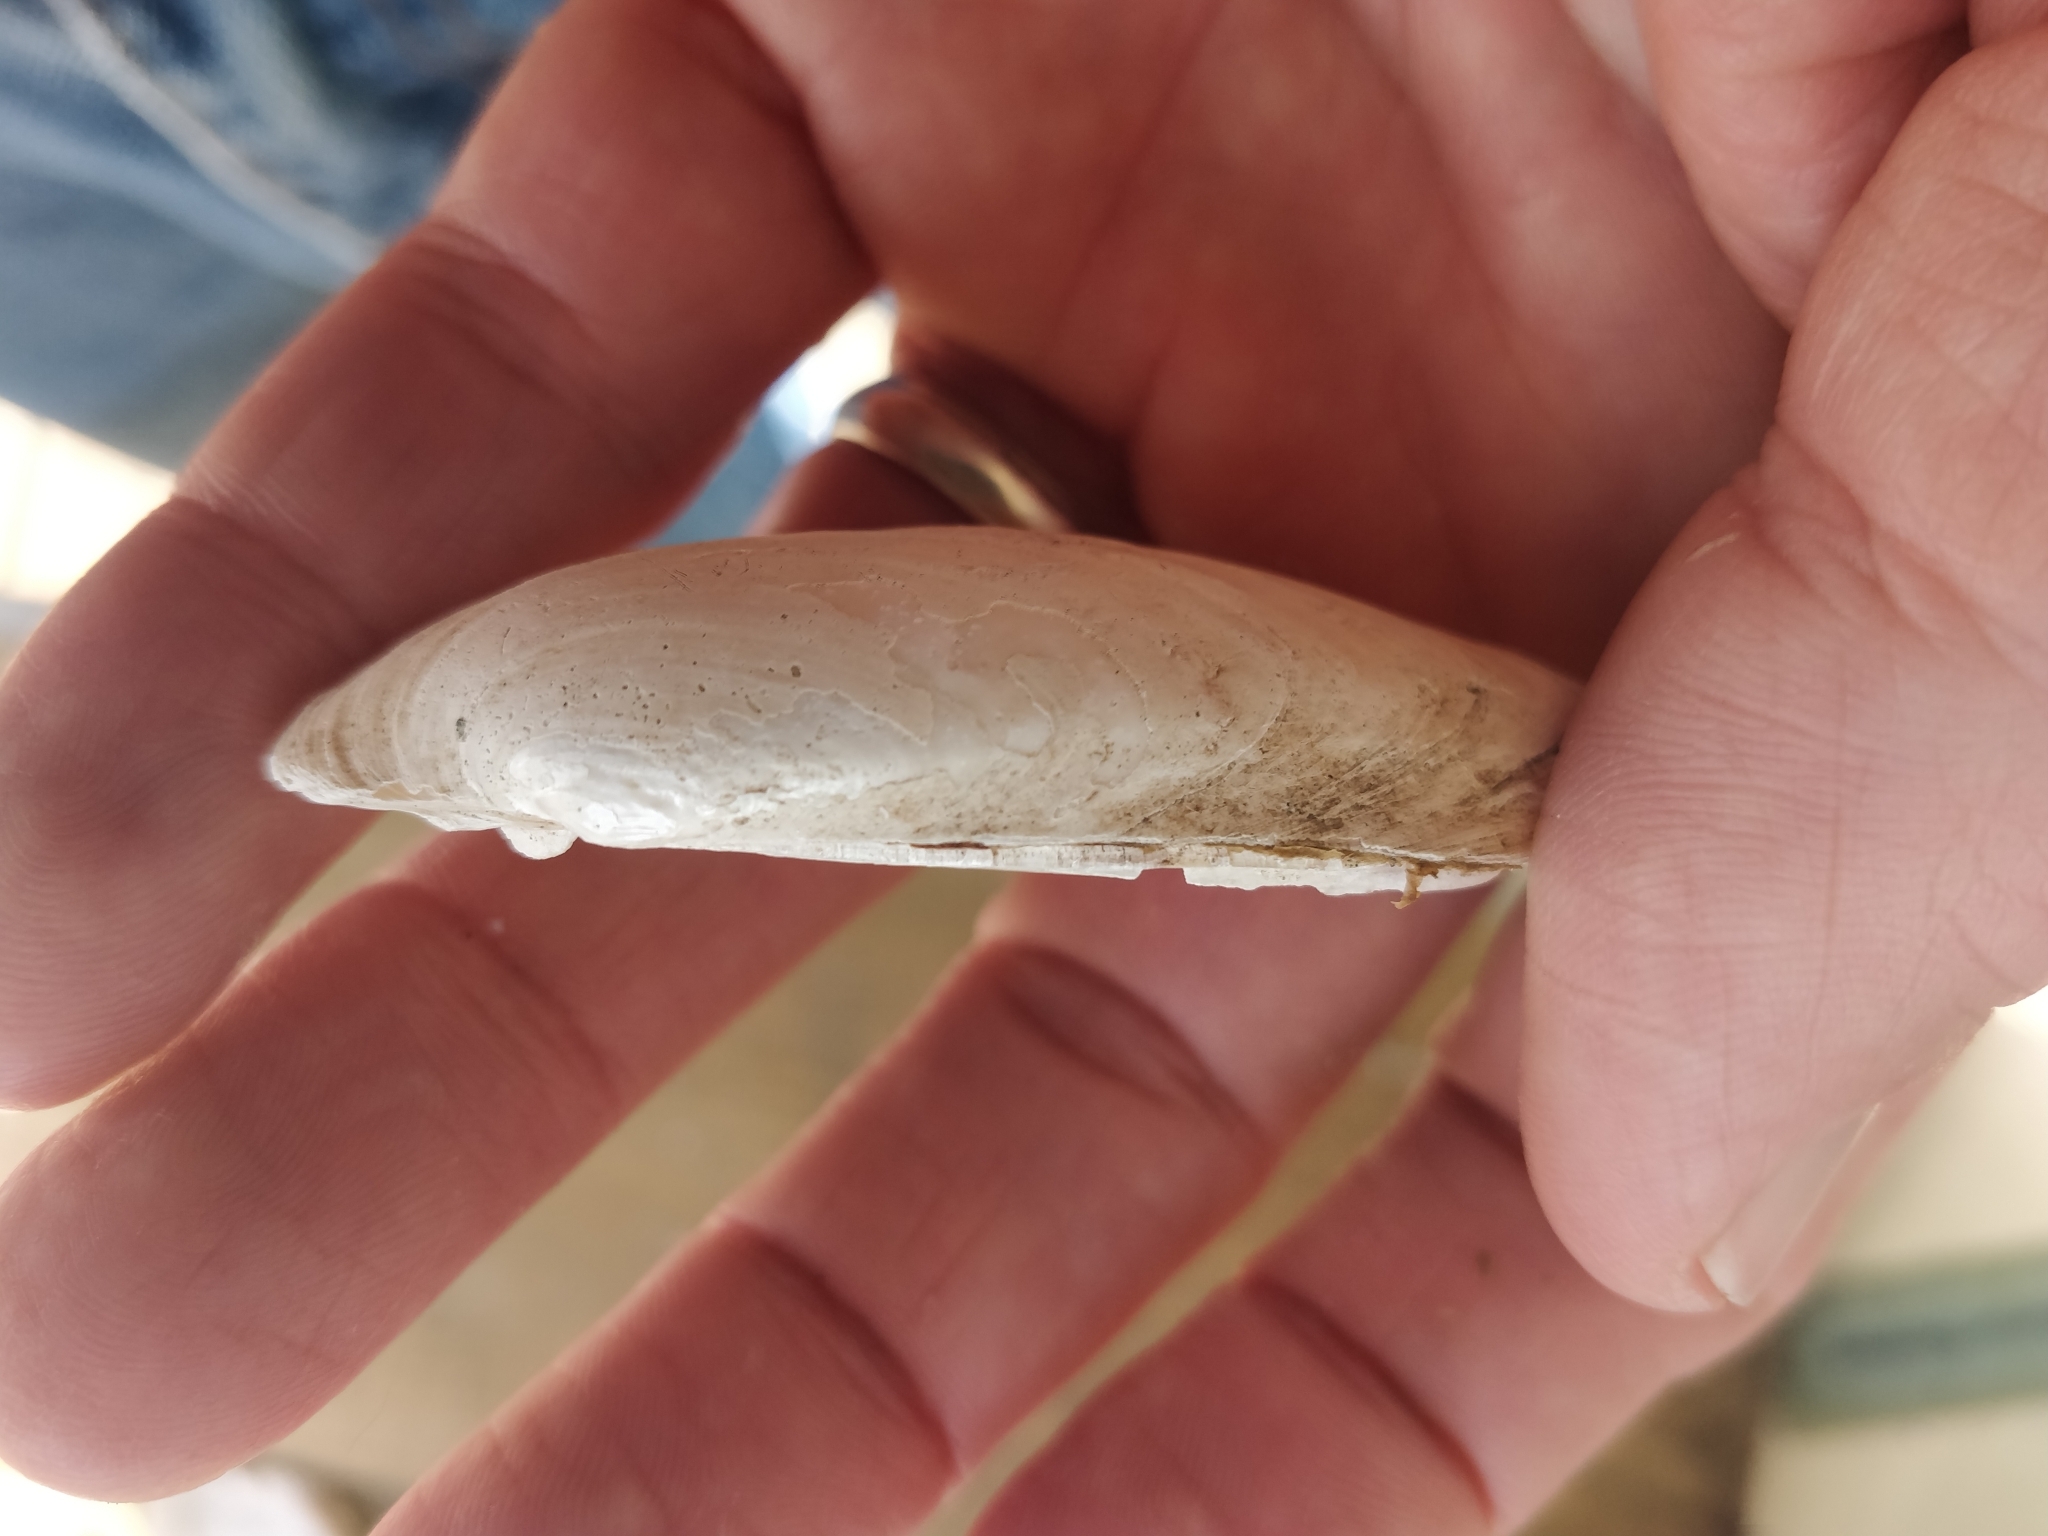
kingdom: Animalia
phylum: Mollusca
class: Bivalvia
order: Unionida
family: Unionidae
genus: Lampsilis
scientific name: Lampsilis teres
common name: Yellow sandshell
